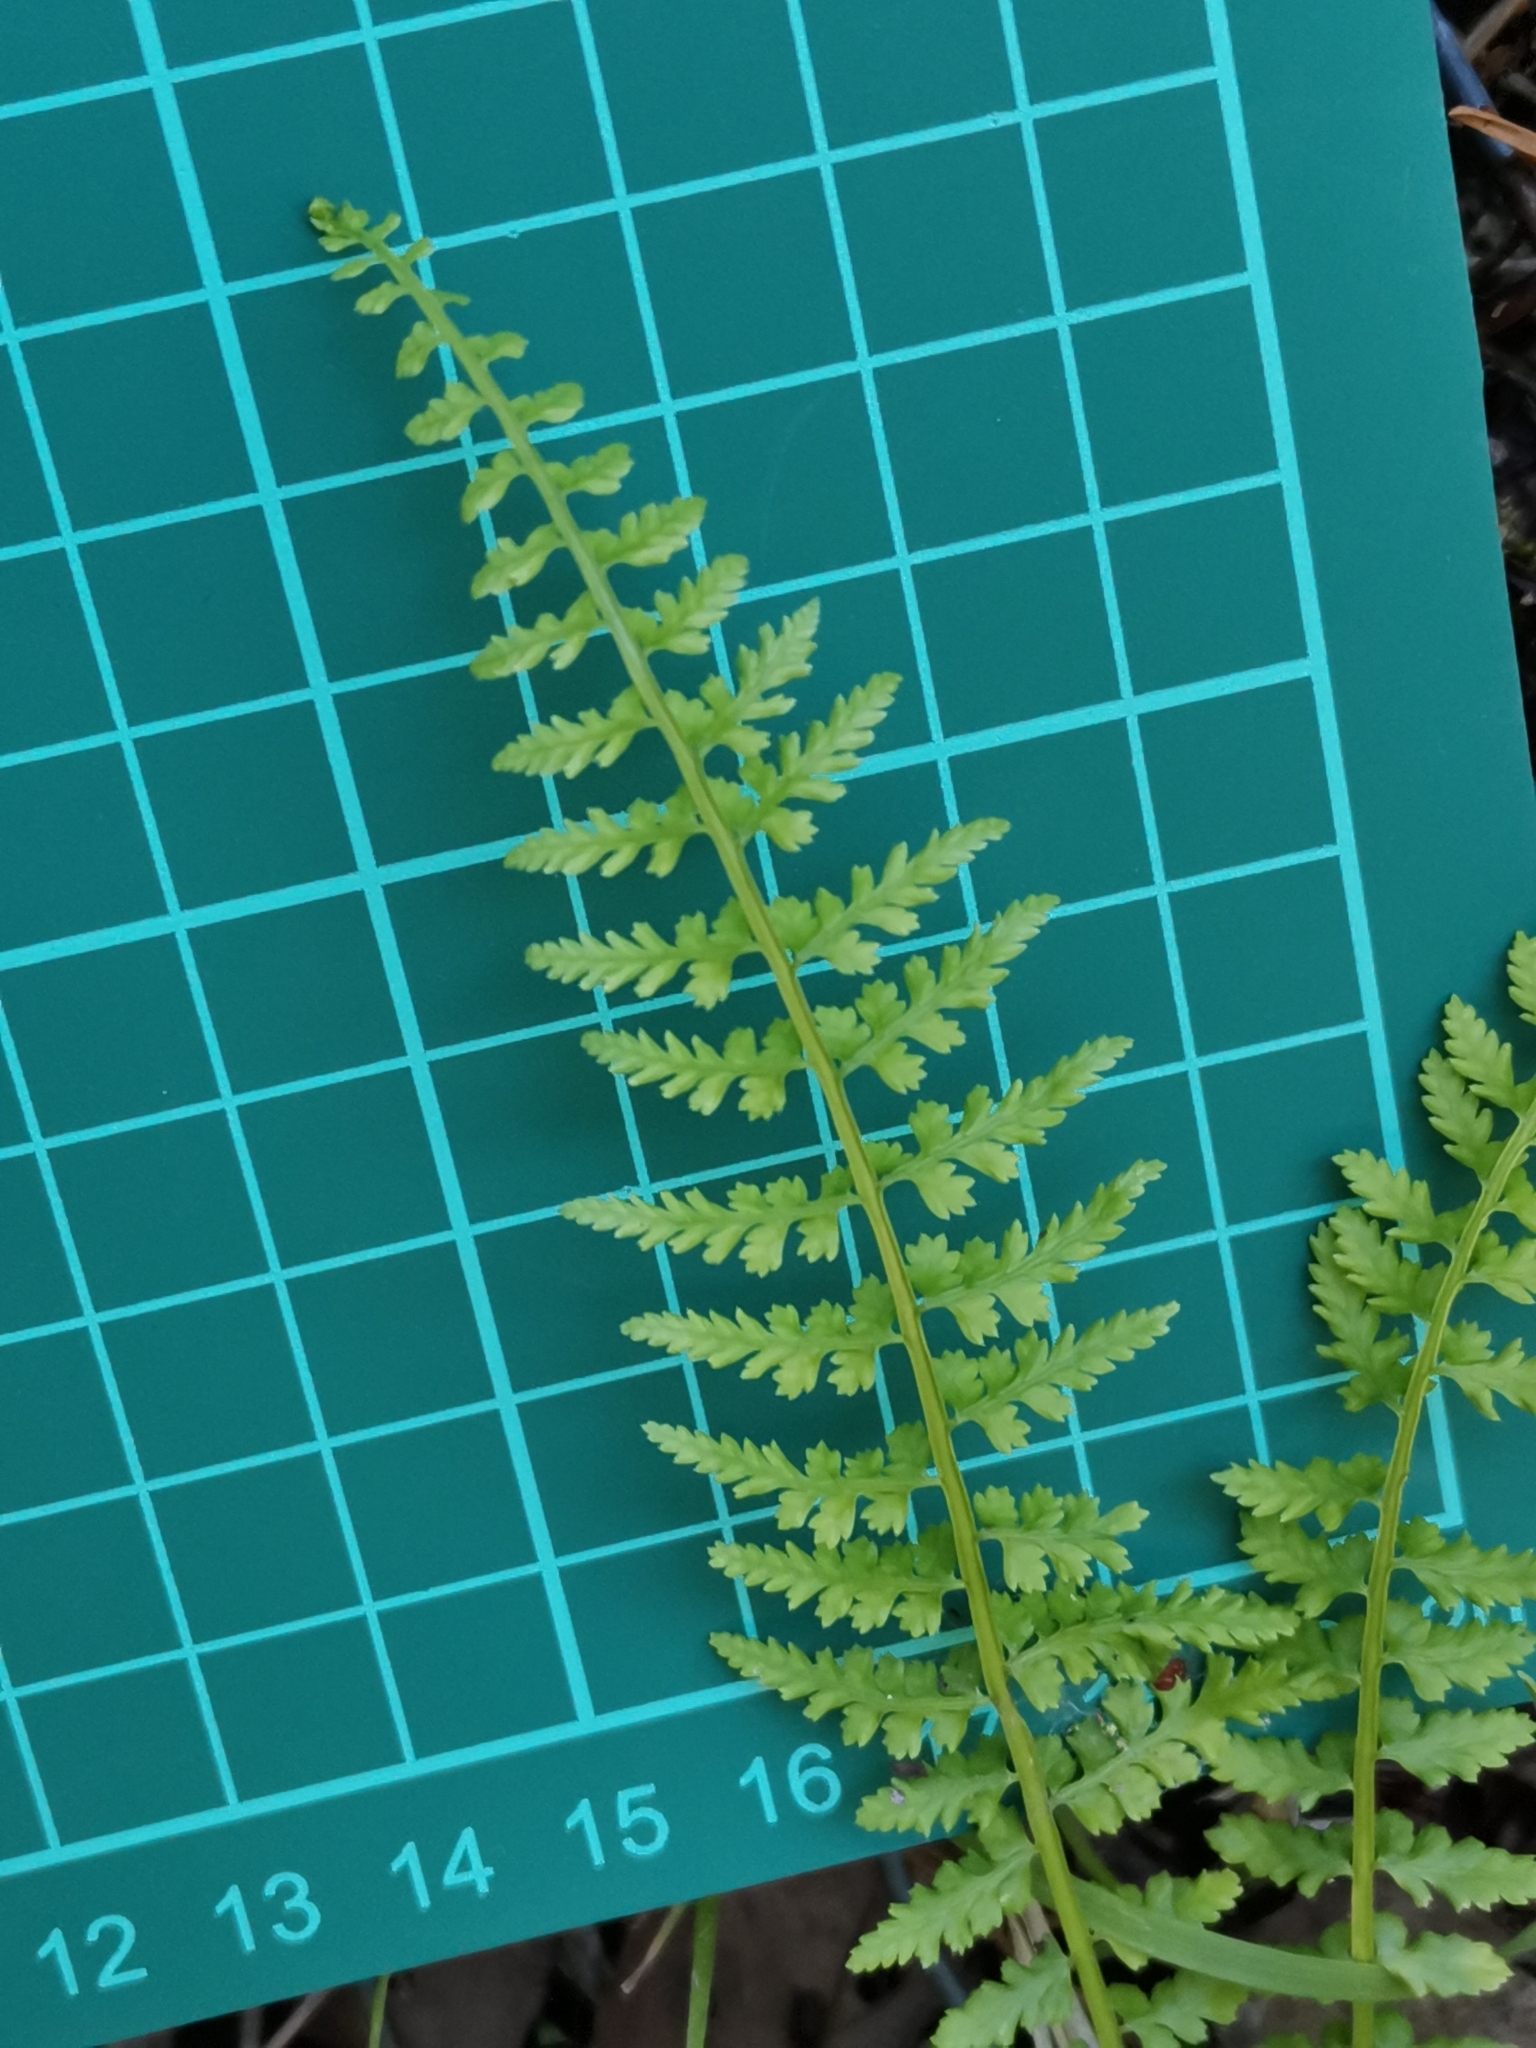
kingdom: Plantae
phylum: Tracheophyta
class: Polypodiopsida
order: Polypodiales
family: Aspleniaceae
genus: Asplenium
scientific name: Asplenium incisum
